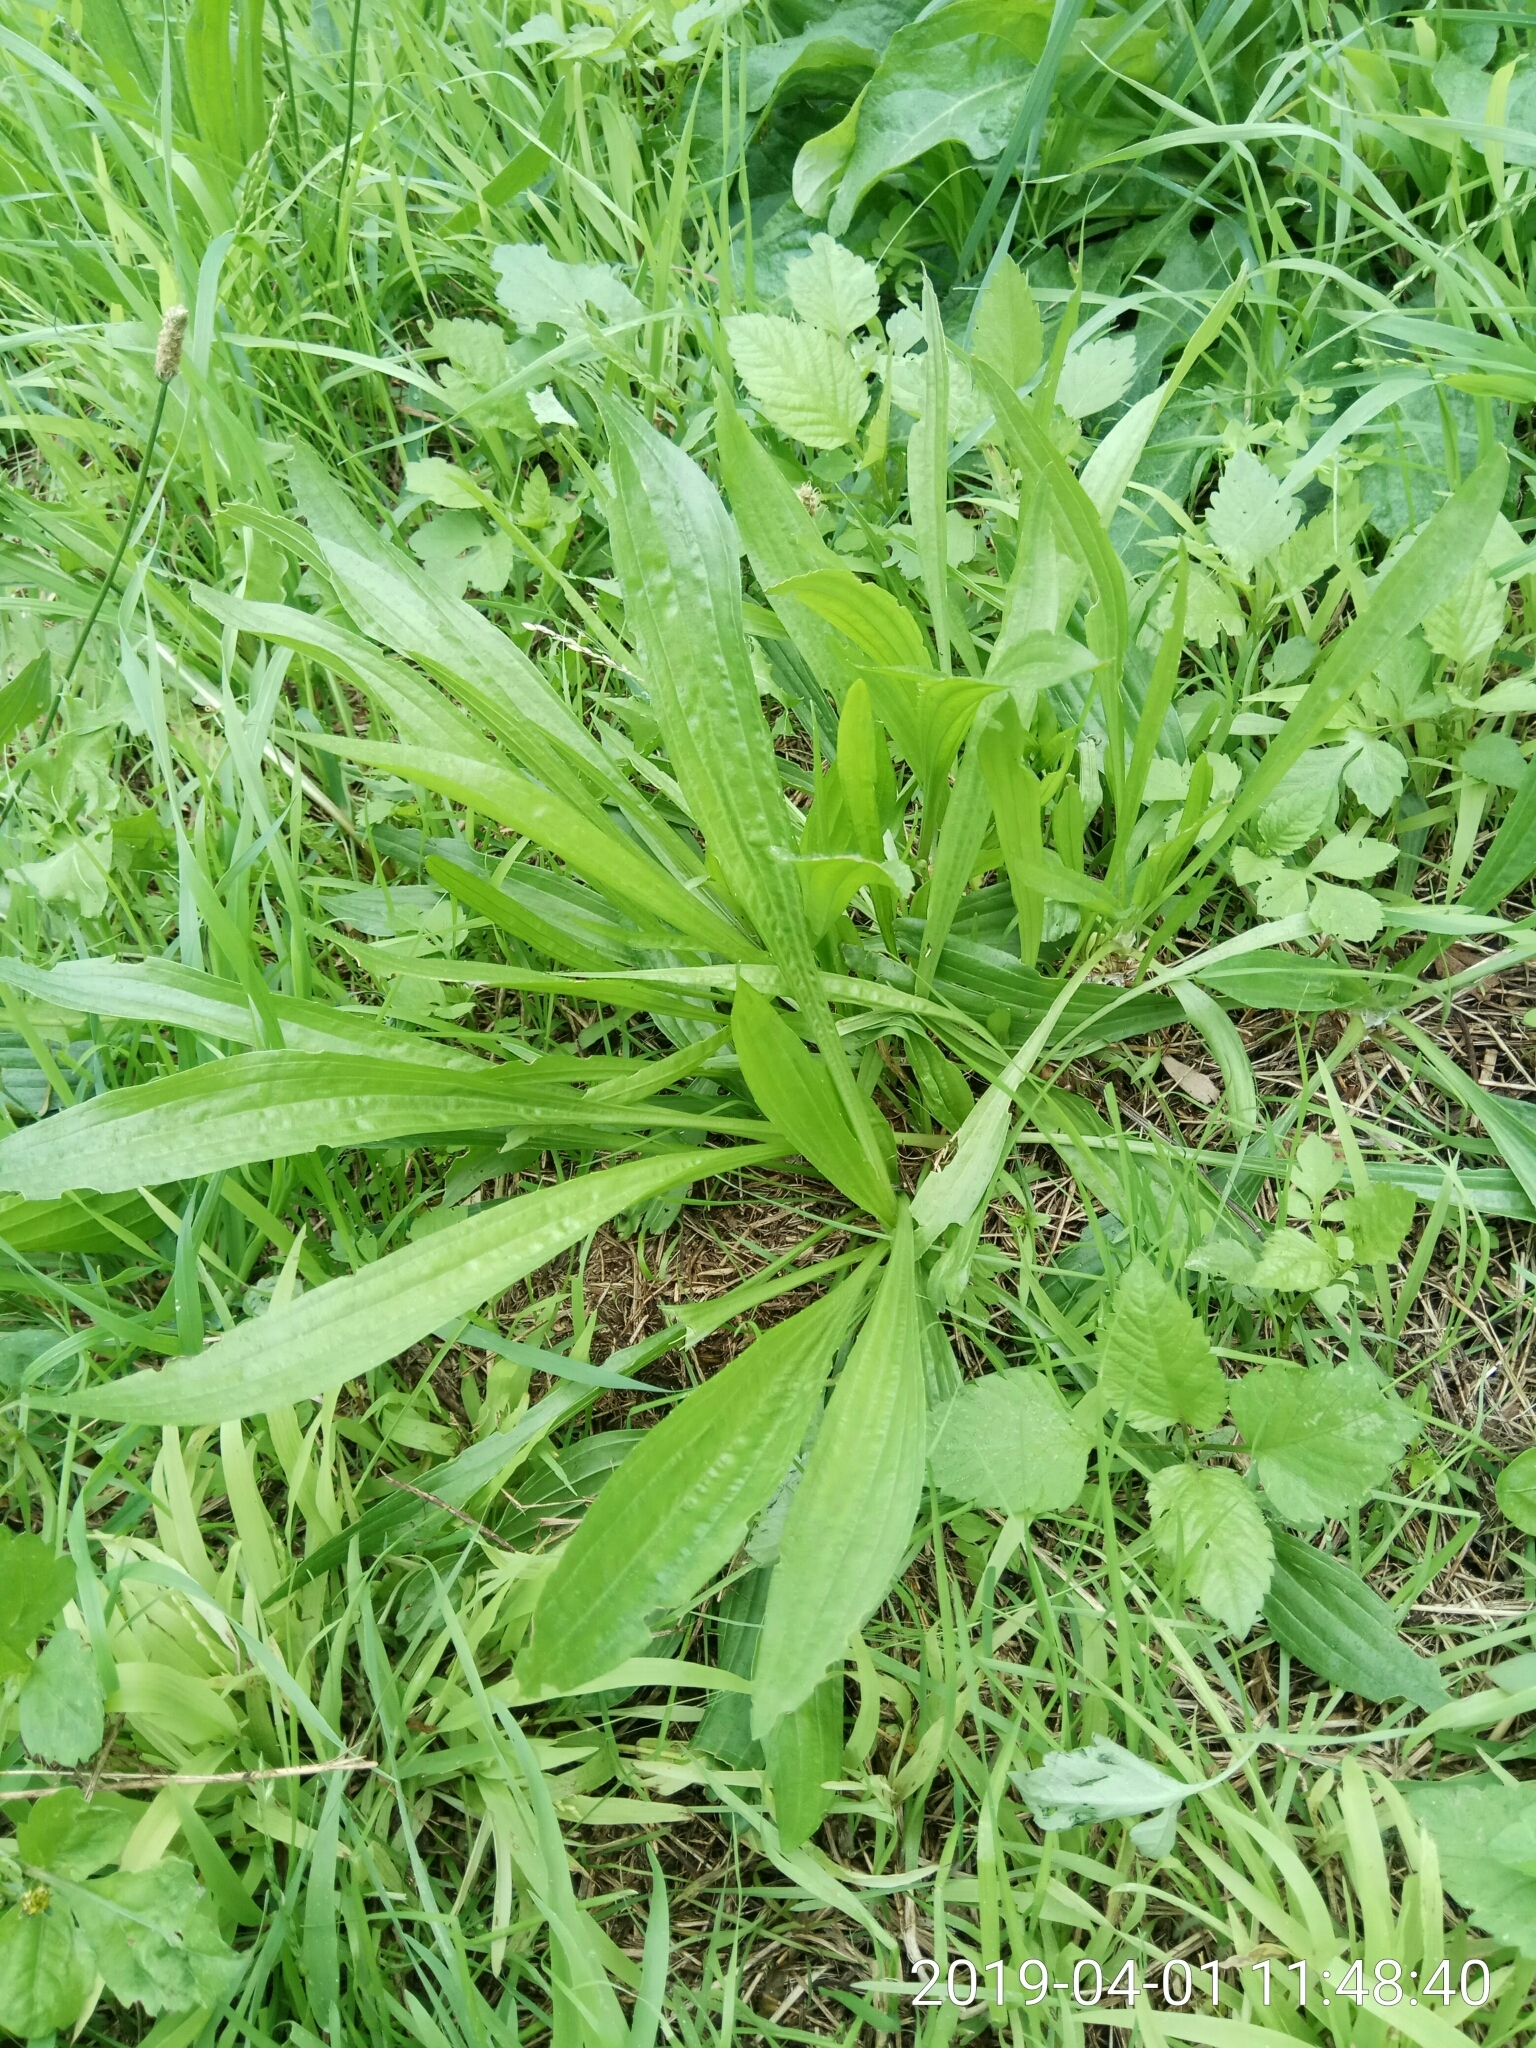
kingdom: Plantae
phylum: Tracheophyta
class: Magnoliopsida
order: Lamiales
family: Plantaginaceae
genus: Plantago
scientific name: Plantago lanceolata
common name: Ribwort plantain
